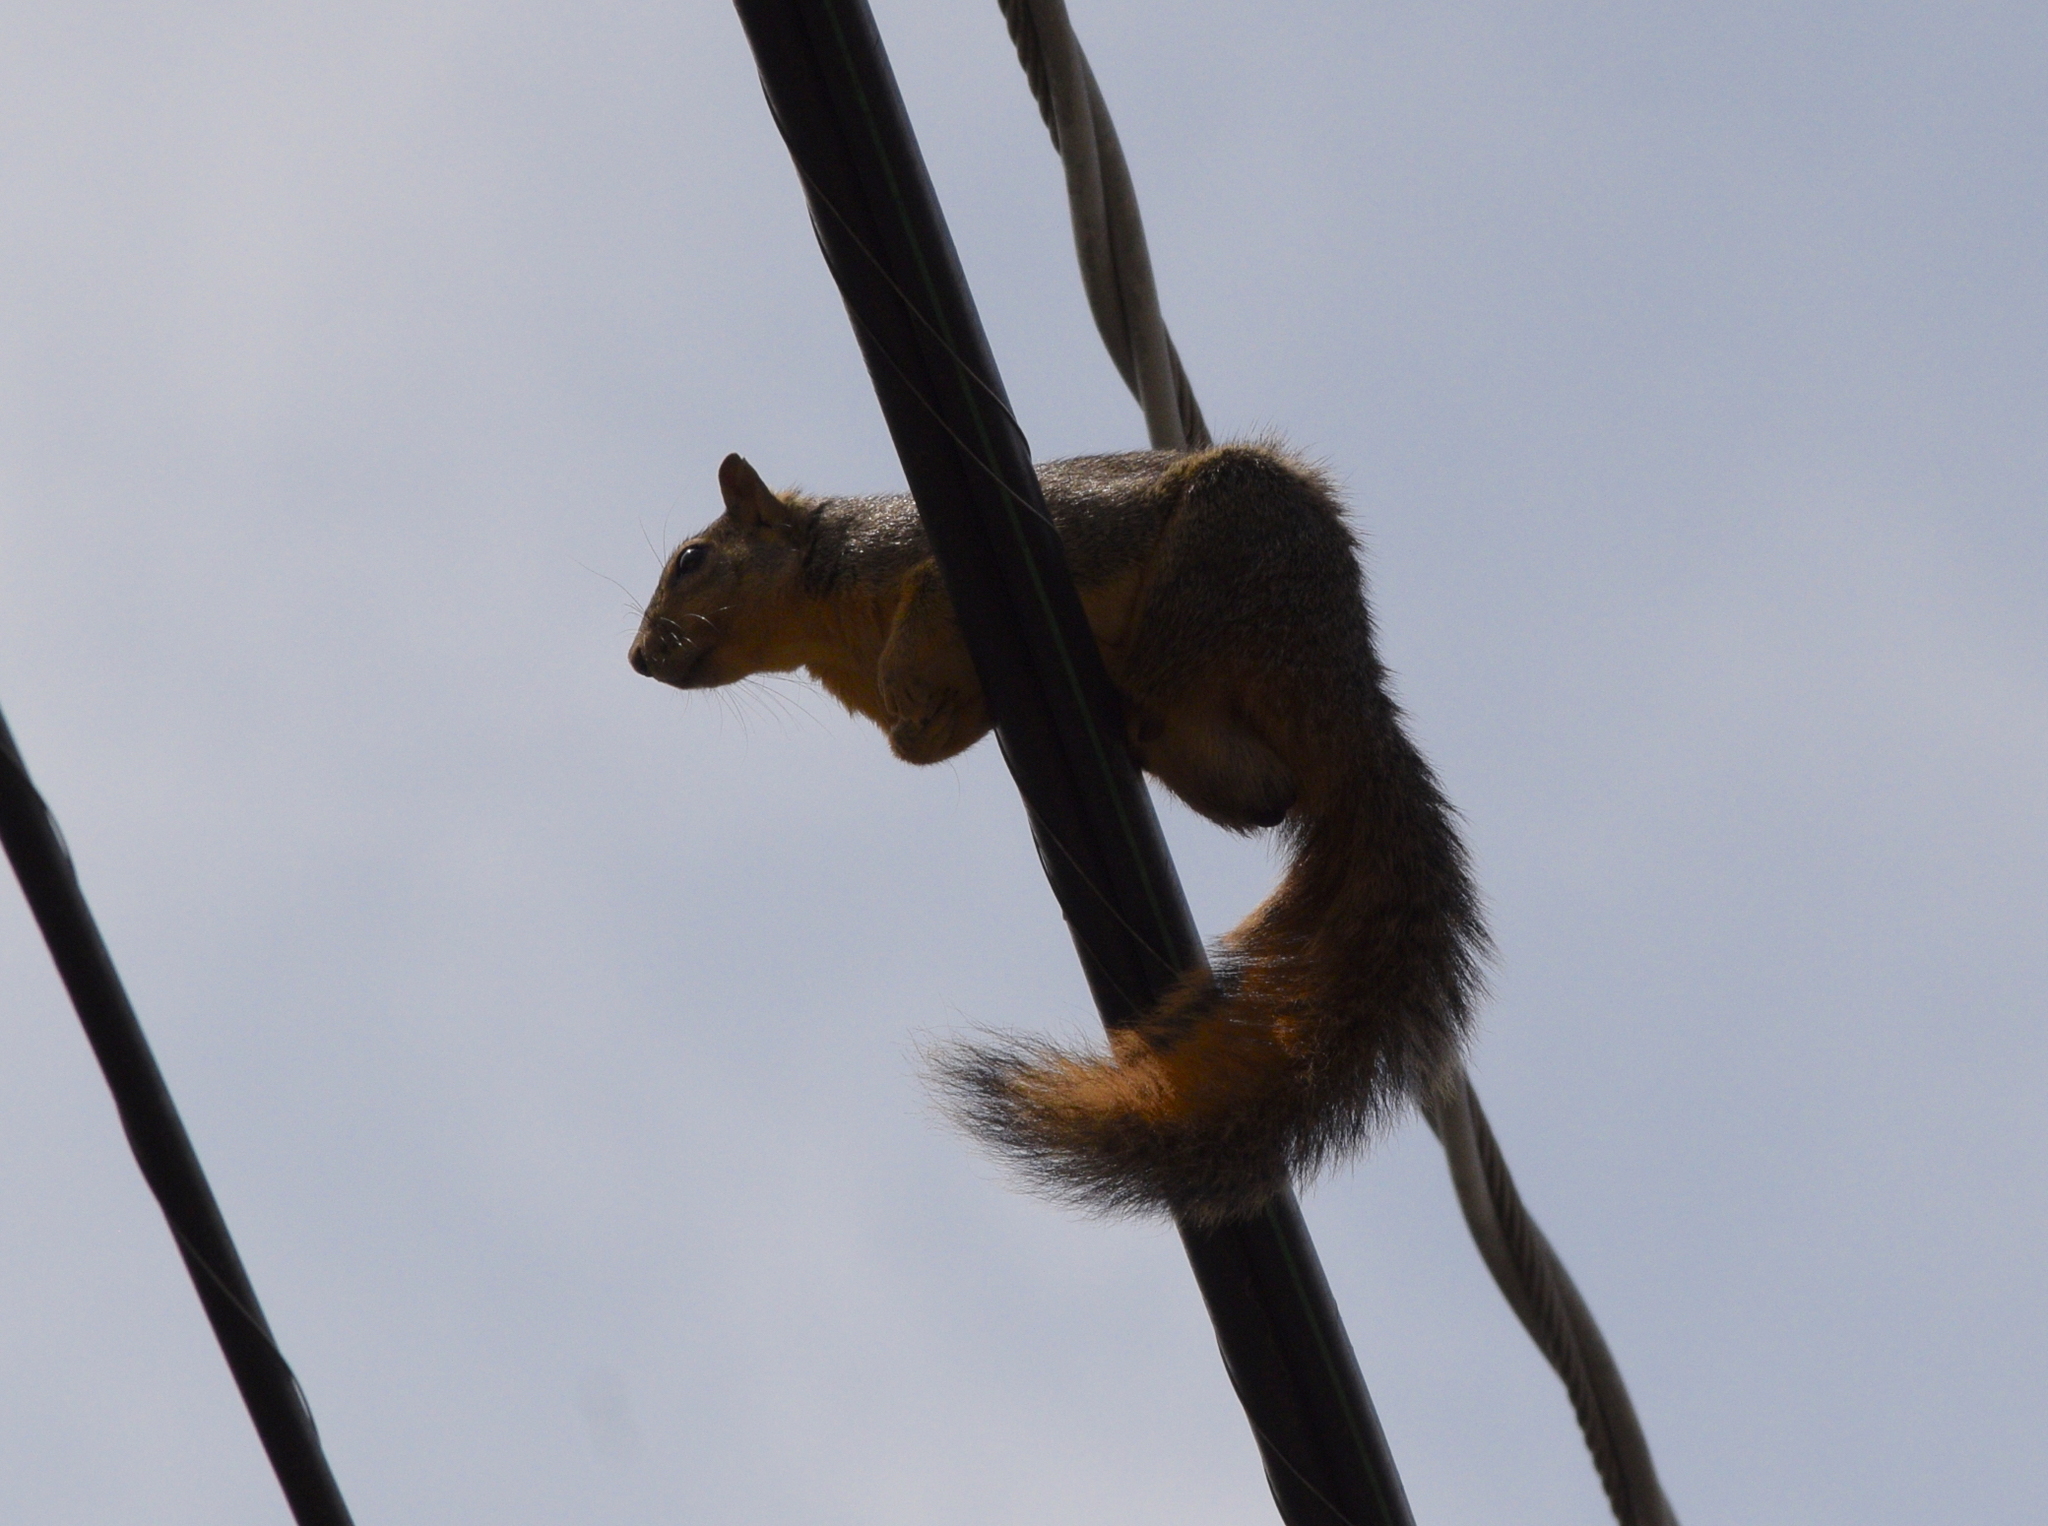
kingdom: Animalia
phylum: Chordata
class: Mammalia
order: Rodentia
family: Sciuridae
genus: Sciurus
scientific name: Sciurus niger
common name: Fox squirrel
